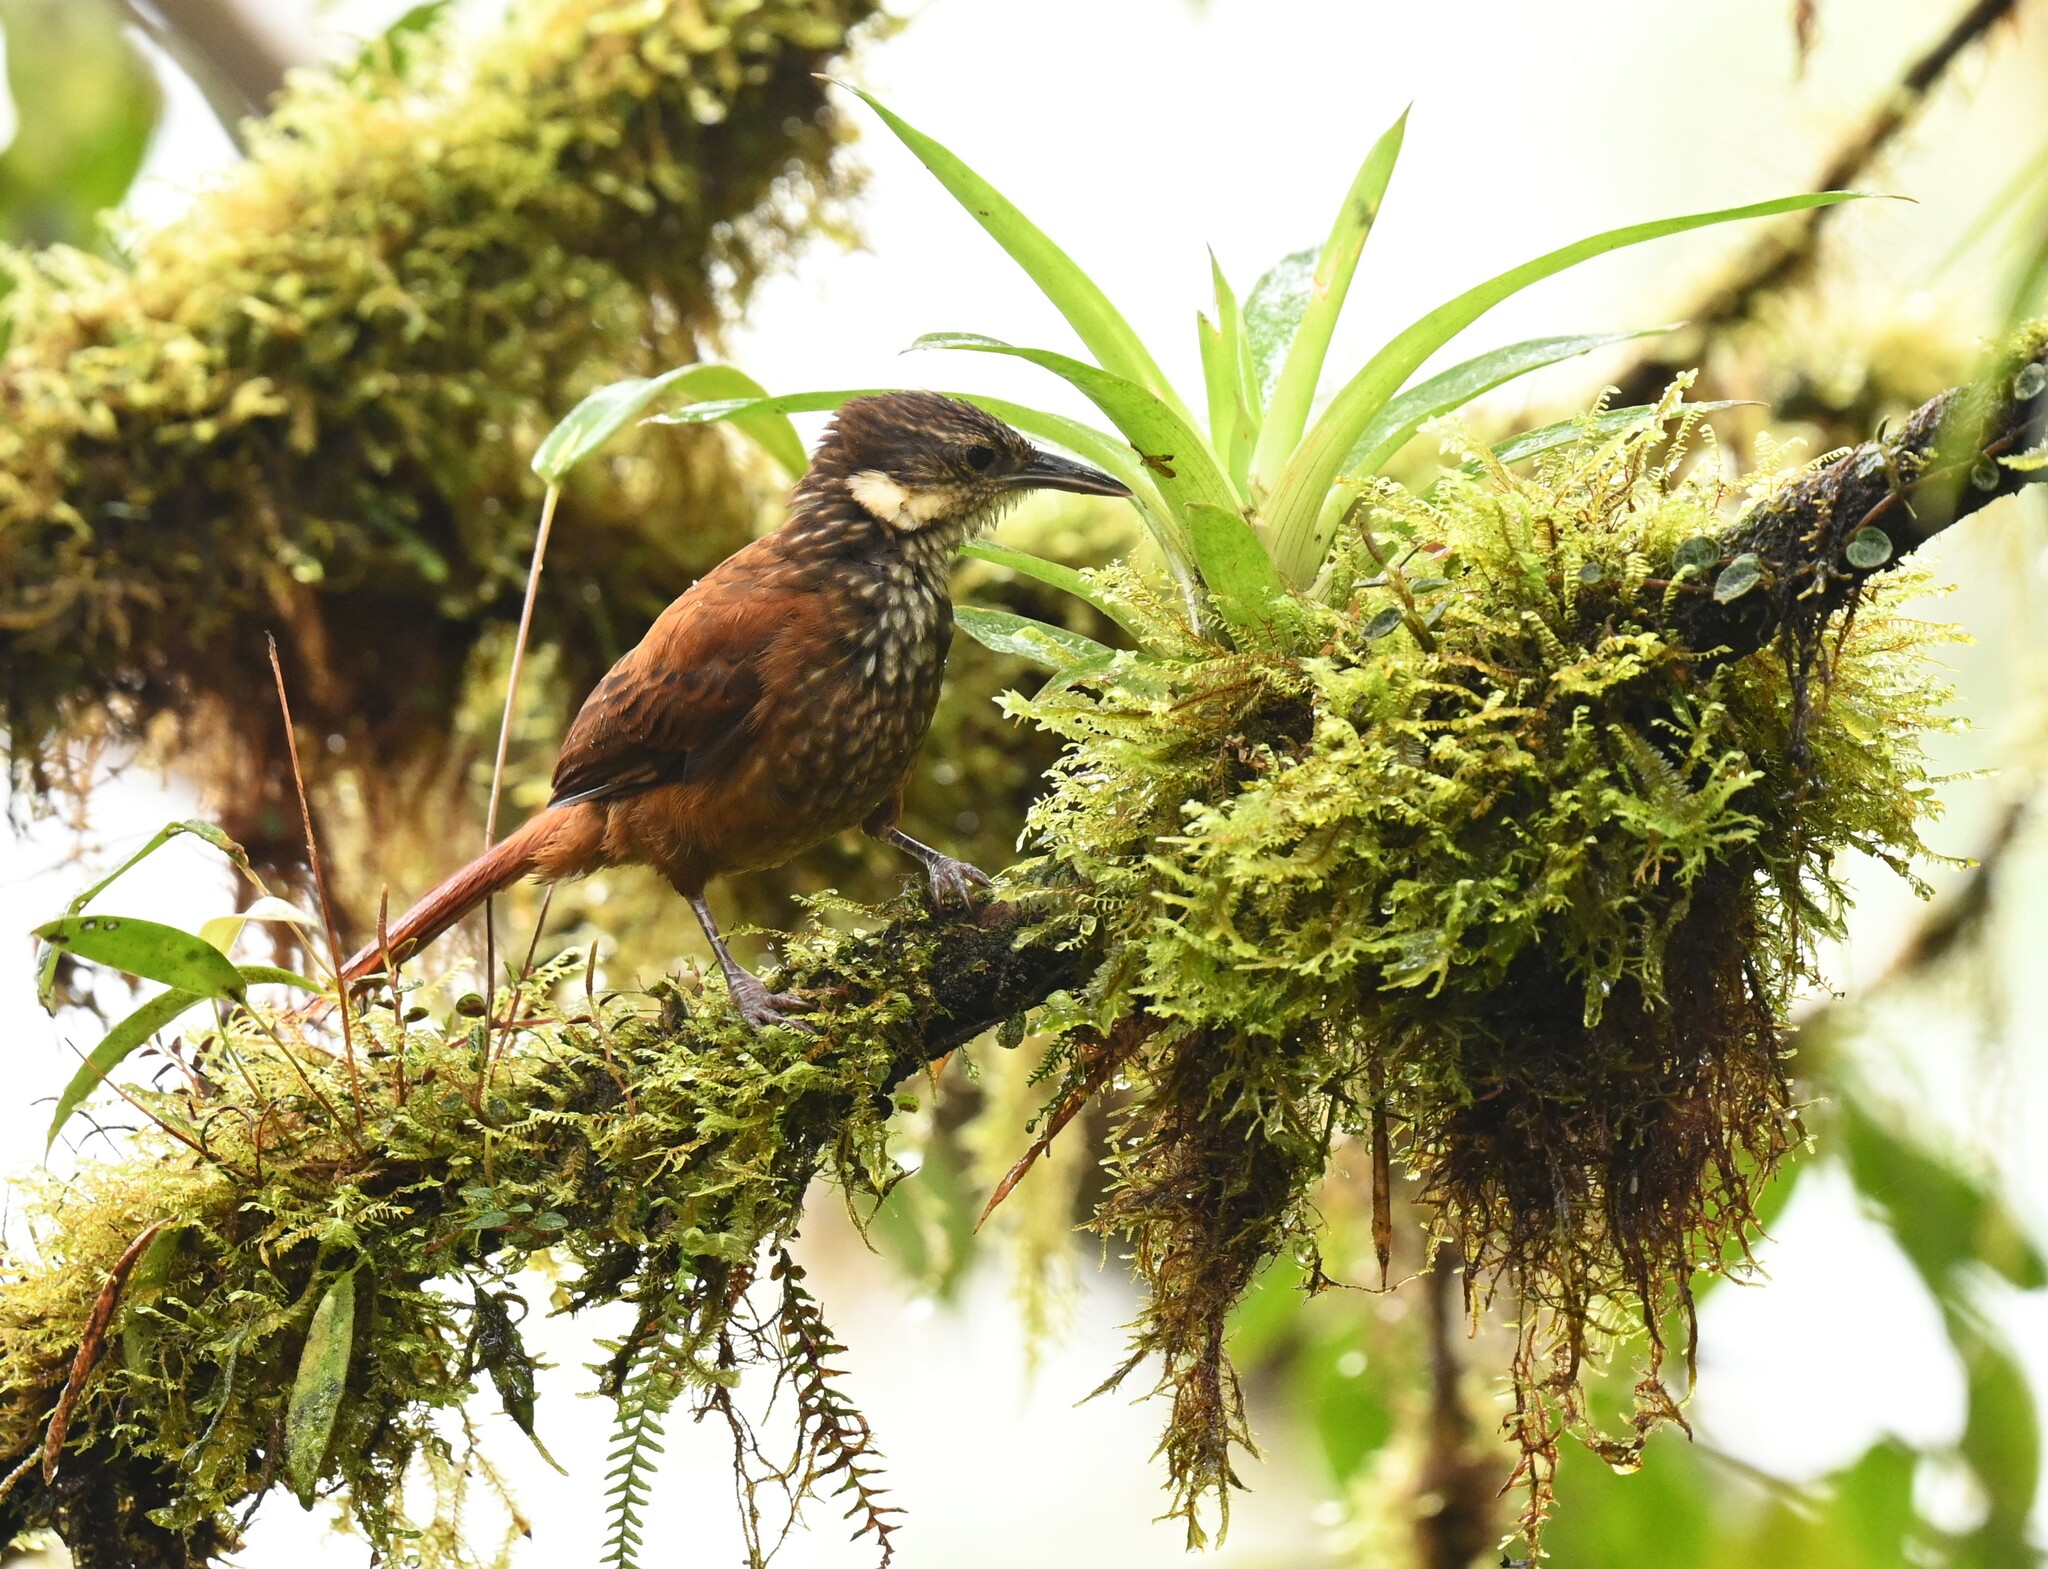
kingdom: Animalia
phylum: Chordata
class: Aves
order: Passeriformes
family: Furnariidae
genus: Pseudocolaptes
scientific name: Pseudocolaptes boissonneautii
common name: Streaked tuftedcheek
